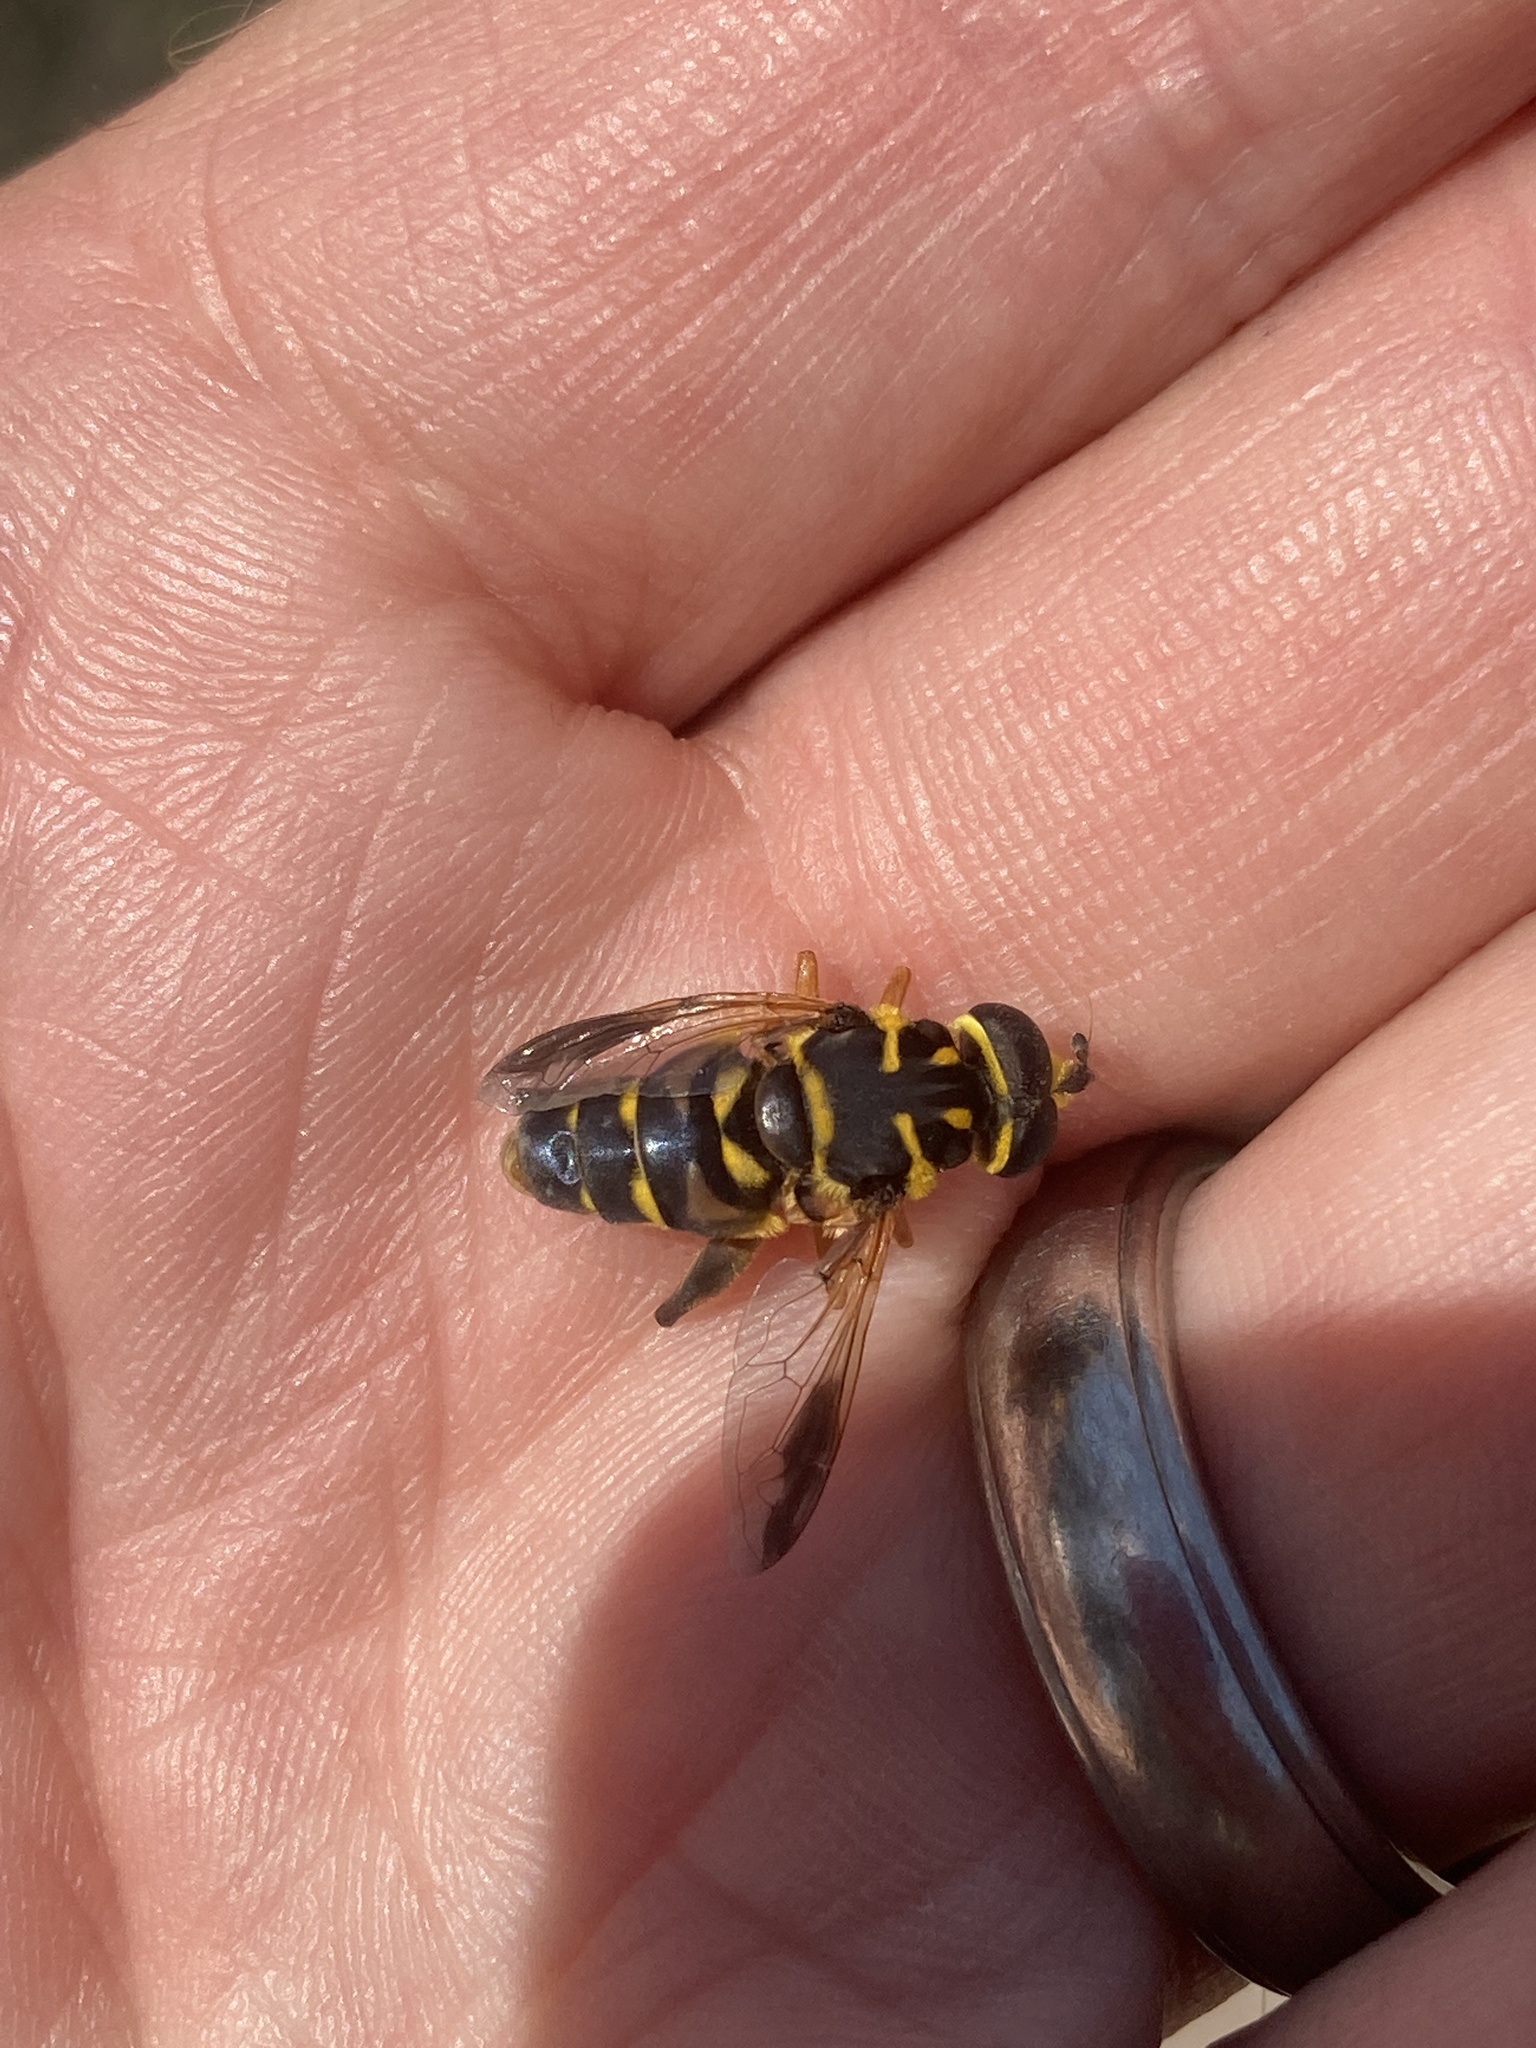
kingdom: Animalia
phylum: Arthropoda
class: Insecta
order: Diptera
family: Syrphidae
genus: Meromacrus
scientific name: Meromacrus acutus
